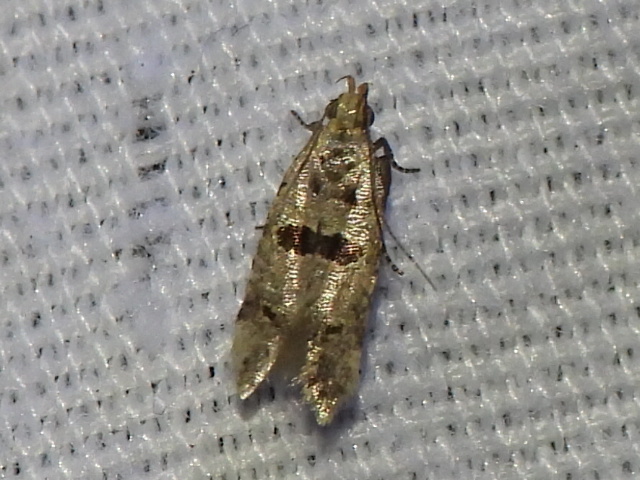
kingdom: Animalia
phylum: Arthropoda
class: Insecta
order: Lepidoptera
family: Gelechiidae
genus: Deltophora
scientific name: Deltophora glandiferella
